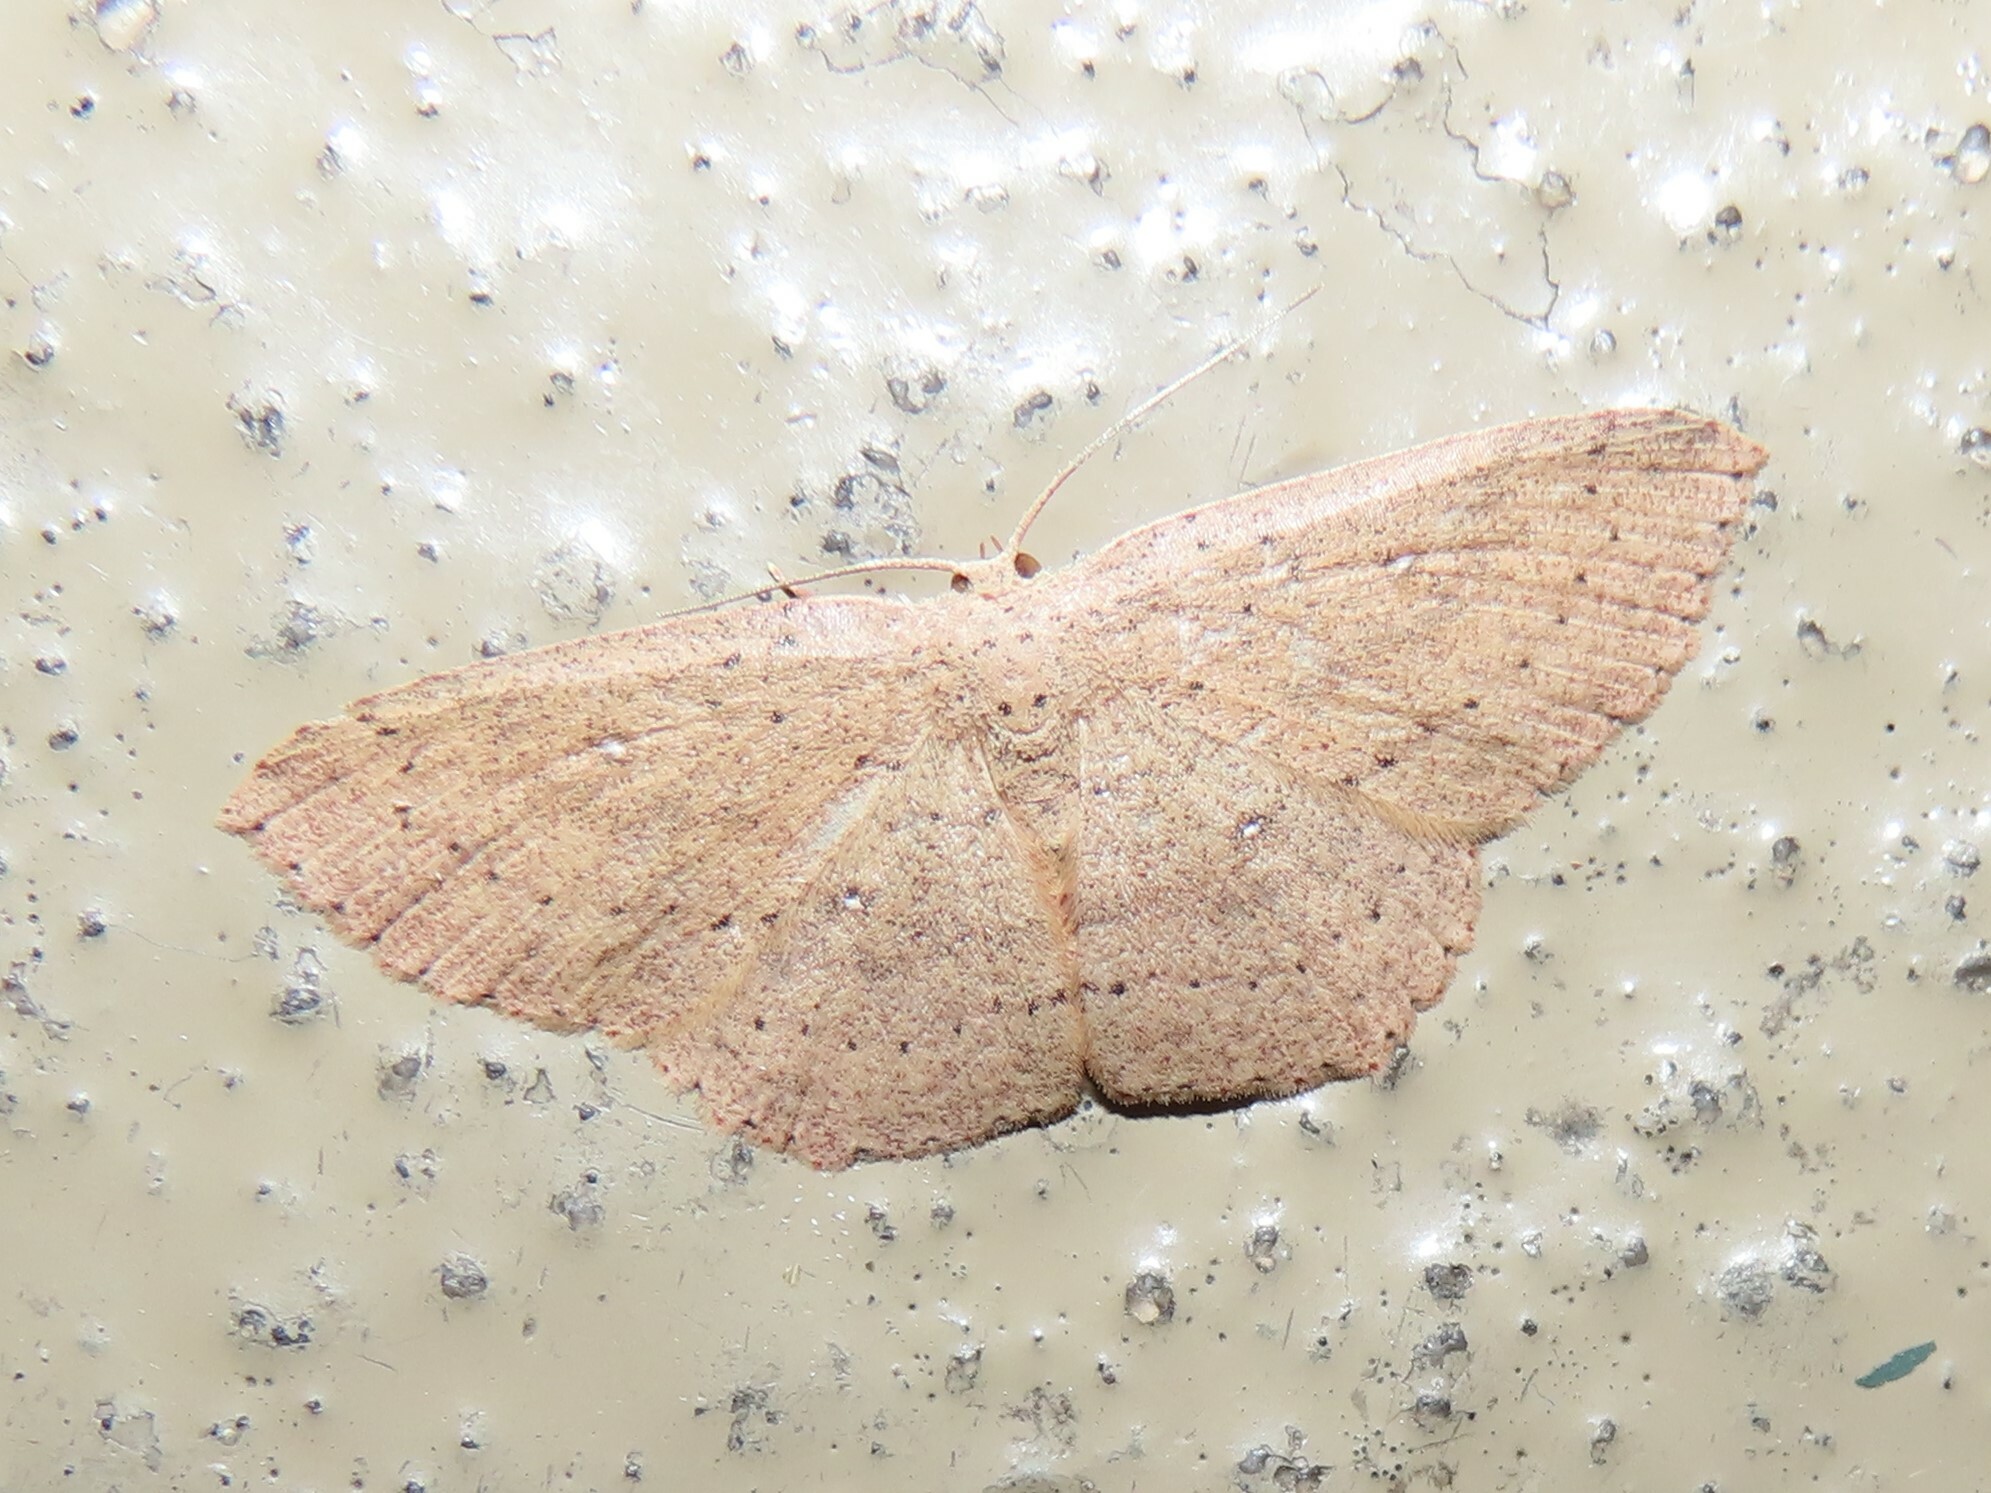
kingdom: Animalia
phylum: Arthropoda
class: Insecta
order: Lepidoptera
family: Geometridae
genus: Cyclophora
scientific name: Cyclophora myrtaria
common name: Waxmyrtle wave moth
